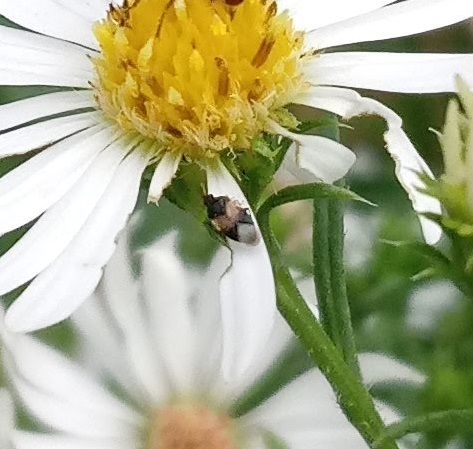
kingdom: Animalia
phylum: Arthropoda
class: Insecta
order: Hemiptera
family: Anthocoridae
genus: Orius
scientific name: Orius insidiosus
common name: Insidious flower bug
